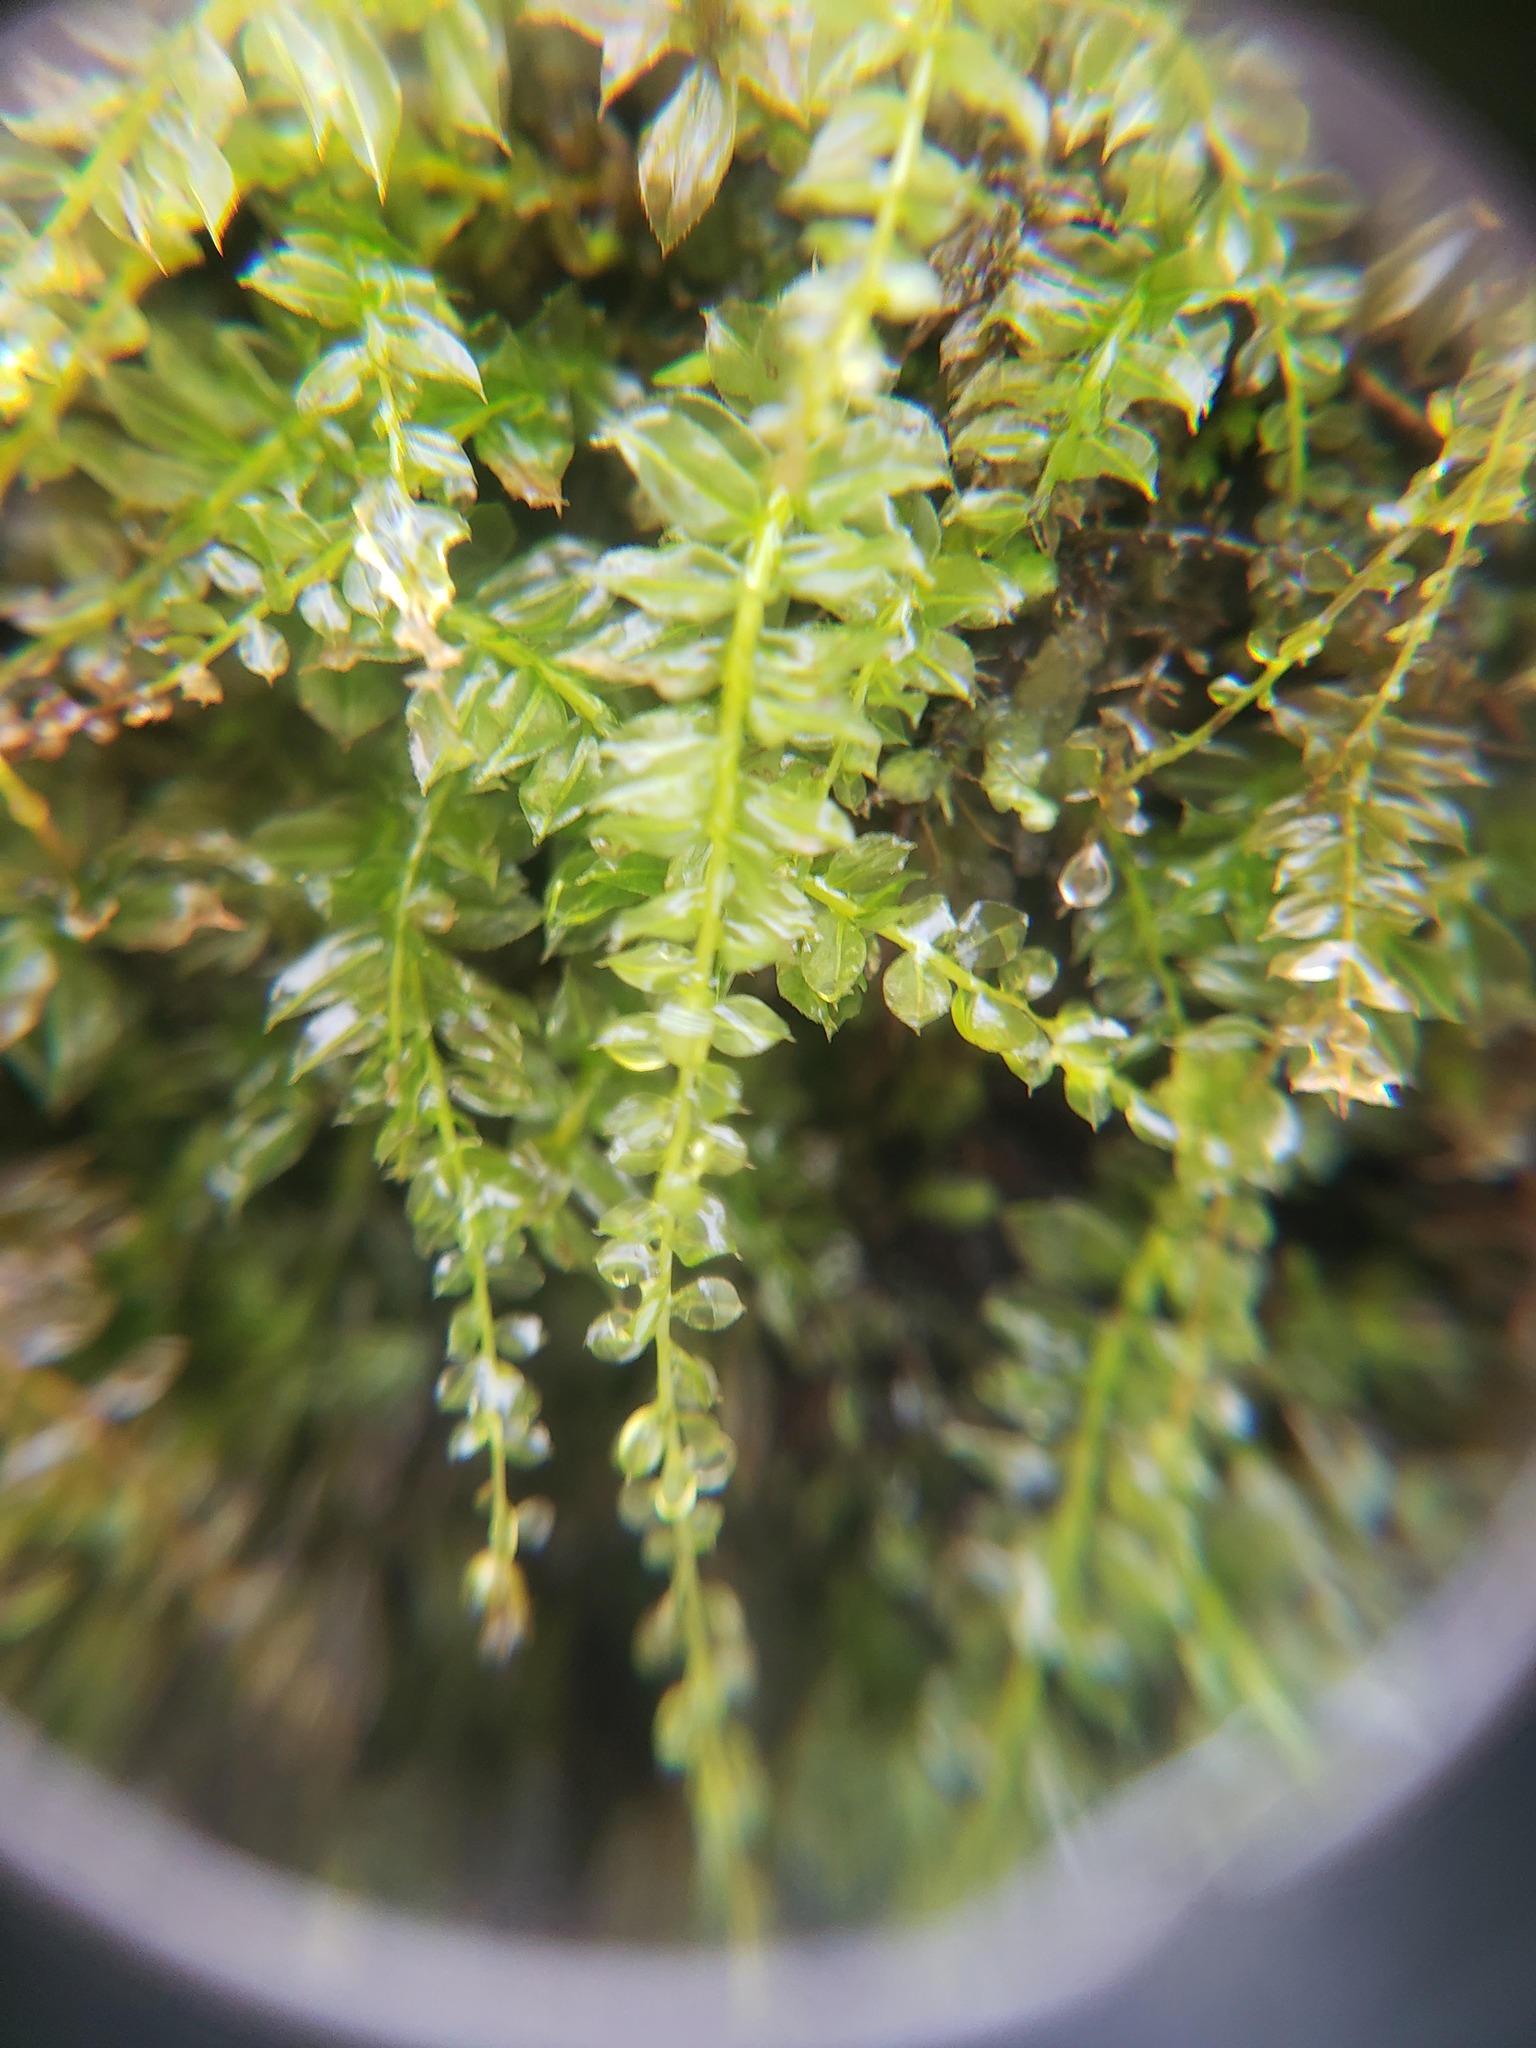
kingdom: Plantae
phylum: Bryophyta
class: Bryopsida
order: Bryales
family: Mniaceae
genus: Plagiomnium
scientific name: Plagiomnium cuspidatum
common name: Woodsy leafy moss
